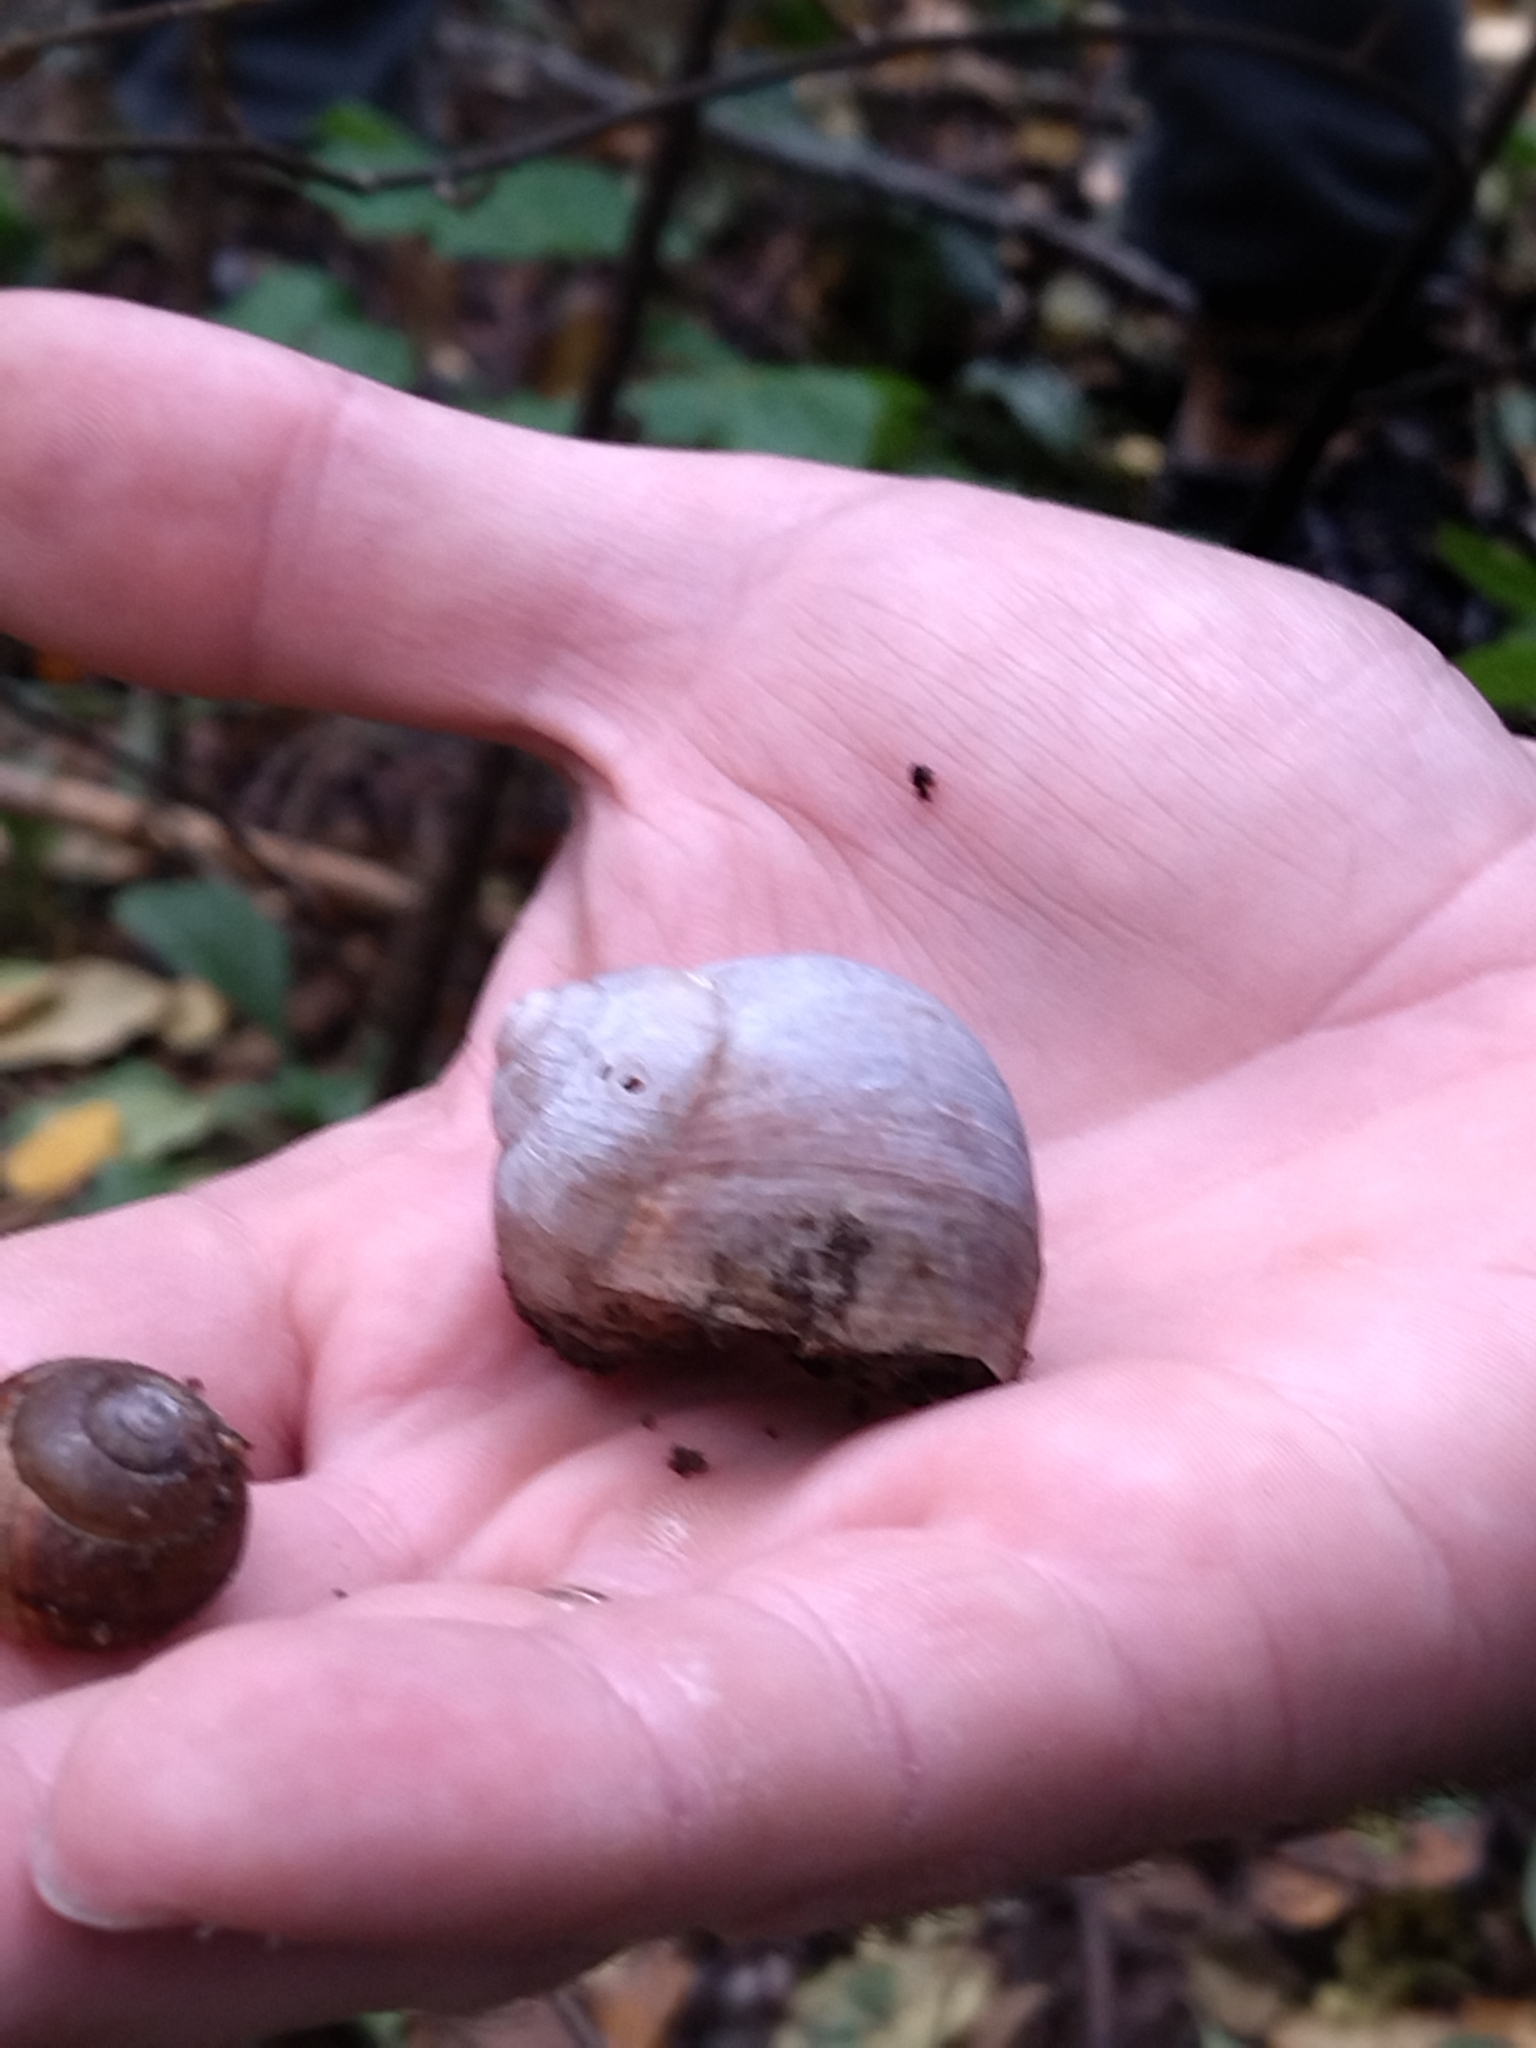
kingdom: Animalia
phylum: Mollusca
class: Gastropoda
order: Stylommatophora
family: Helicidae
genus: Helix
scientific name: Helix pomatia
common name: Roman snail
